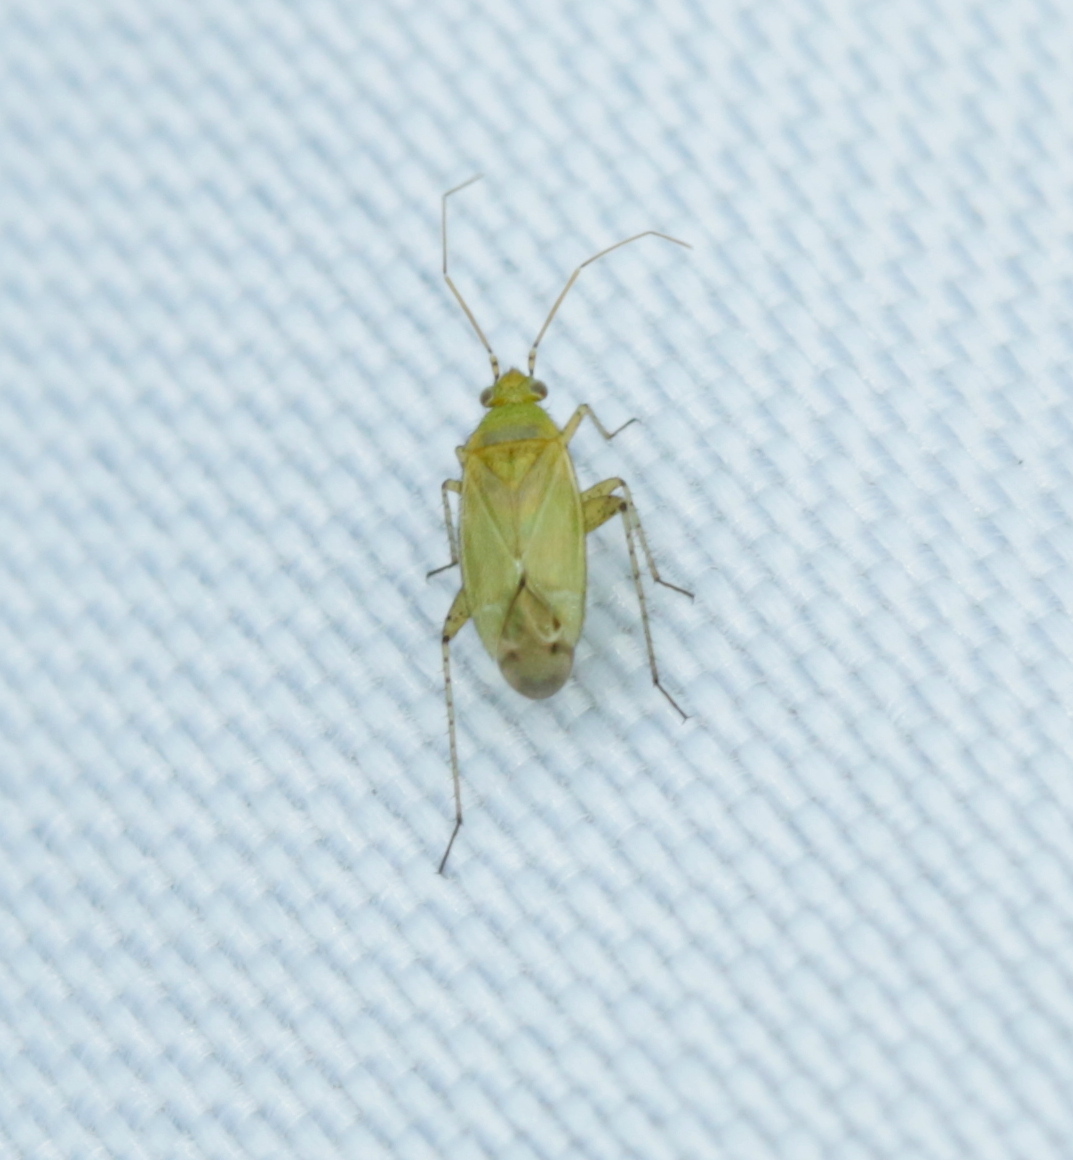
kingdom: Animalia
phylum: Arthropoda
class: Insecta
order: Hemiptera
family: Miridae
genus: Plagiognathus
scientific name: Plagiognathus chrysanthemi
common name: Plant bug
